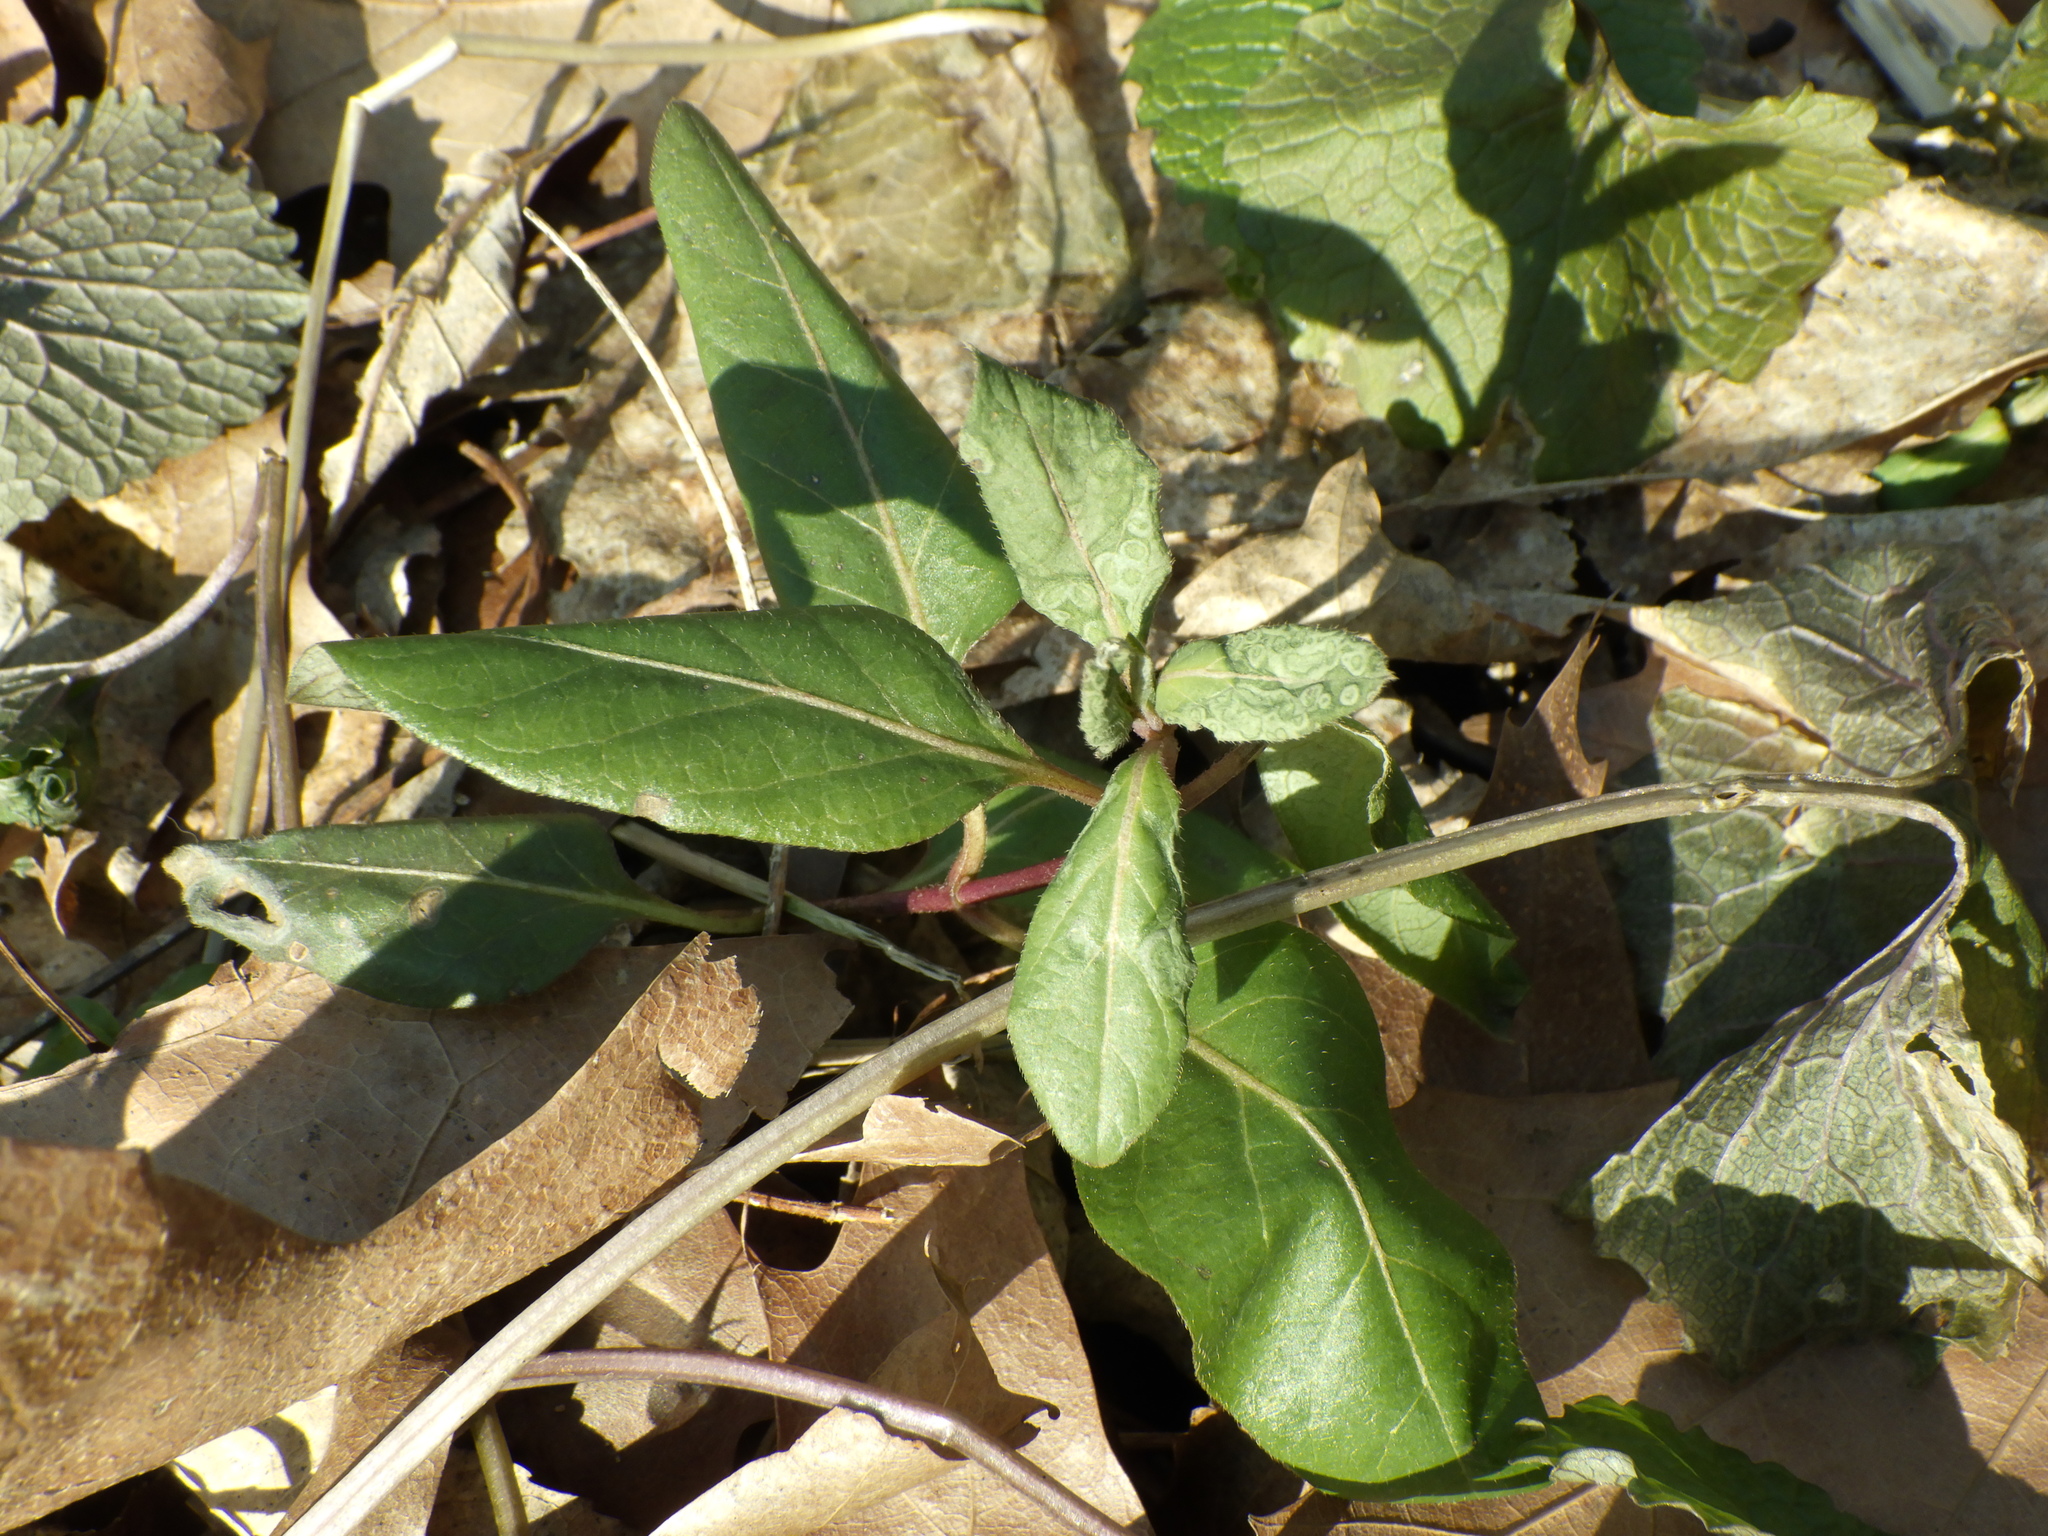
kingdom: Plantae
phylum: Tracheophyta
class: Magnoliopsida
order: Dipsacales
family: Caprifoliaceae
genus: Lonicera
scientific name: Lonicera japonica
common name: Japanese honeysuckle
